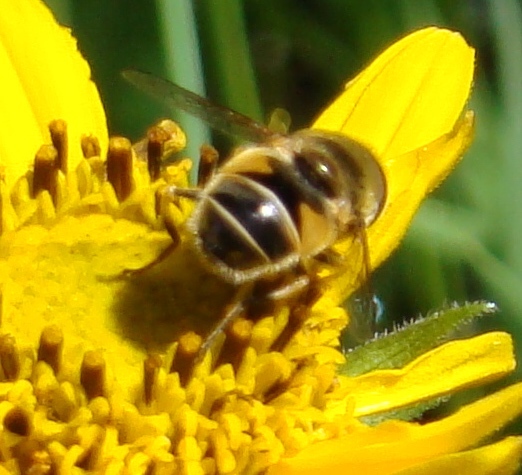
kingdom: Animalia
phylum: Arthropoda
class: Insecta
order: Diptera
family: Syrphidae
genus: Eoseristalis
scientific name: Eoseristalis
